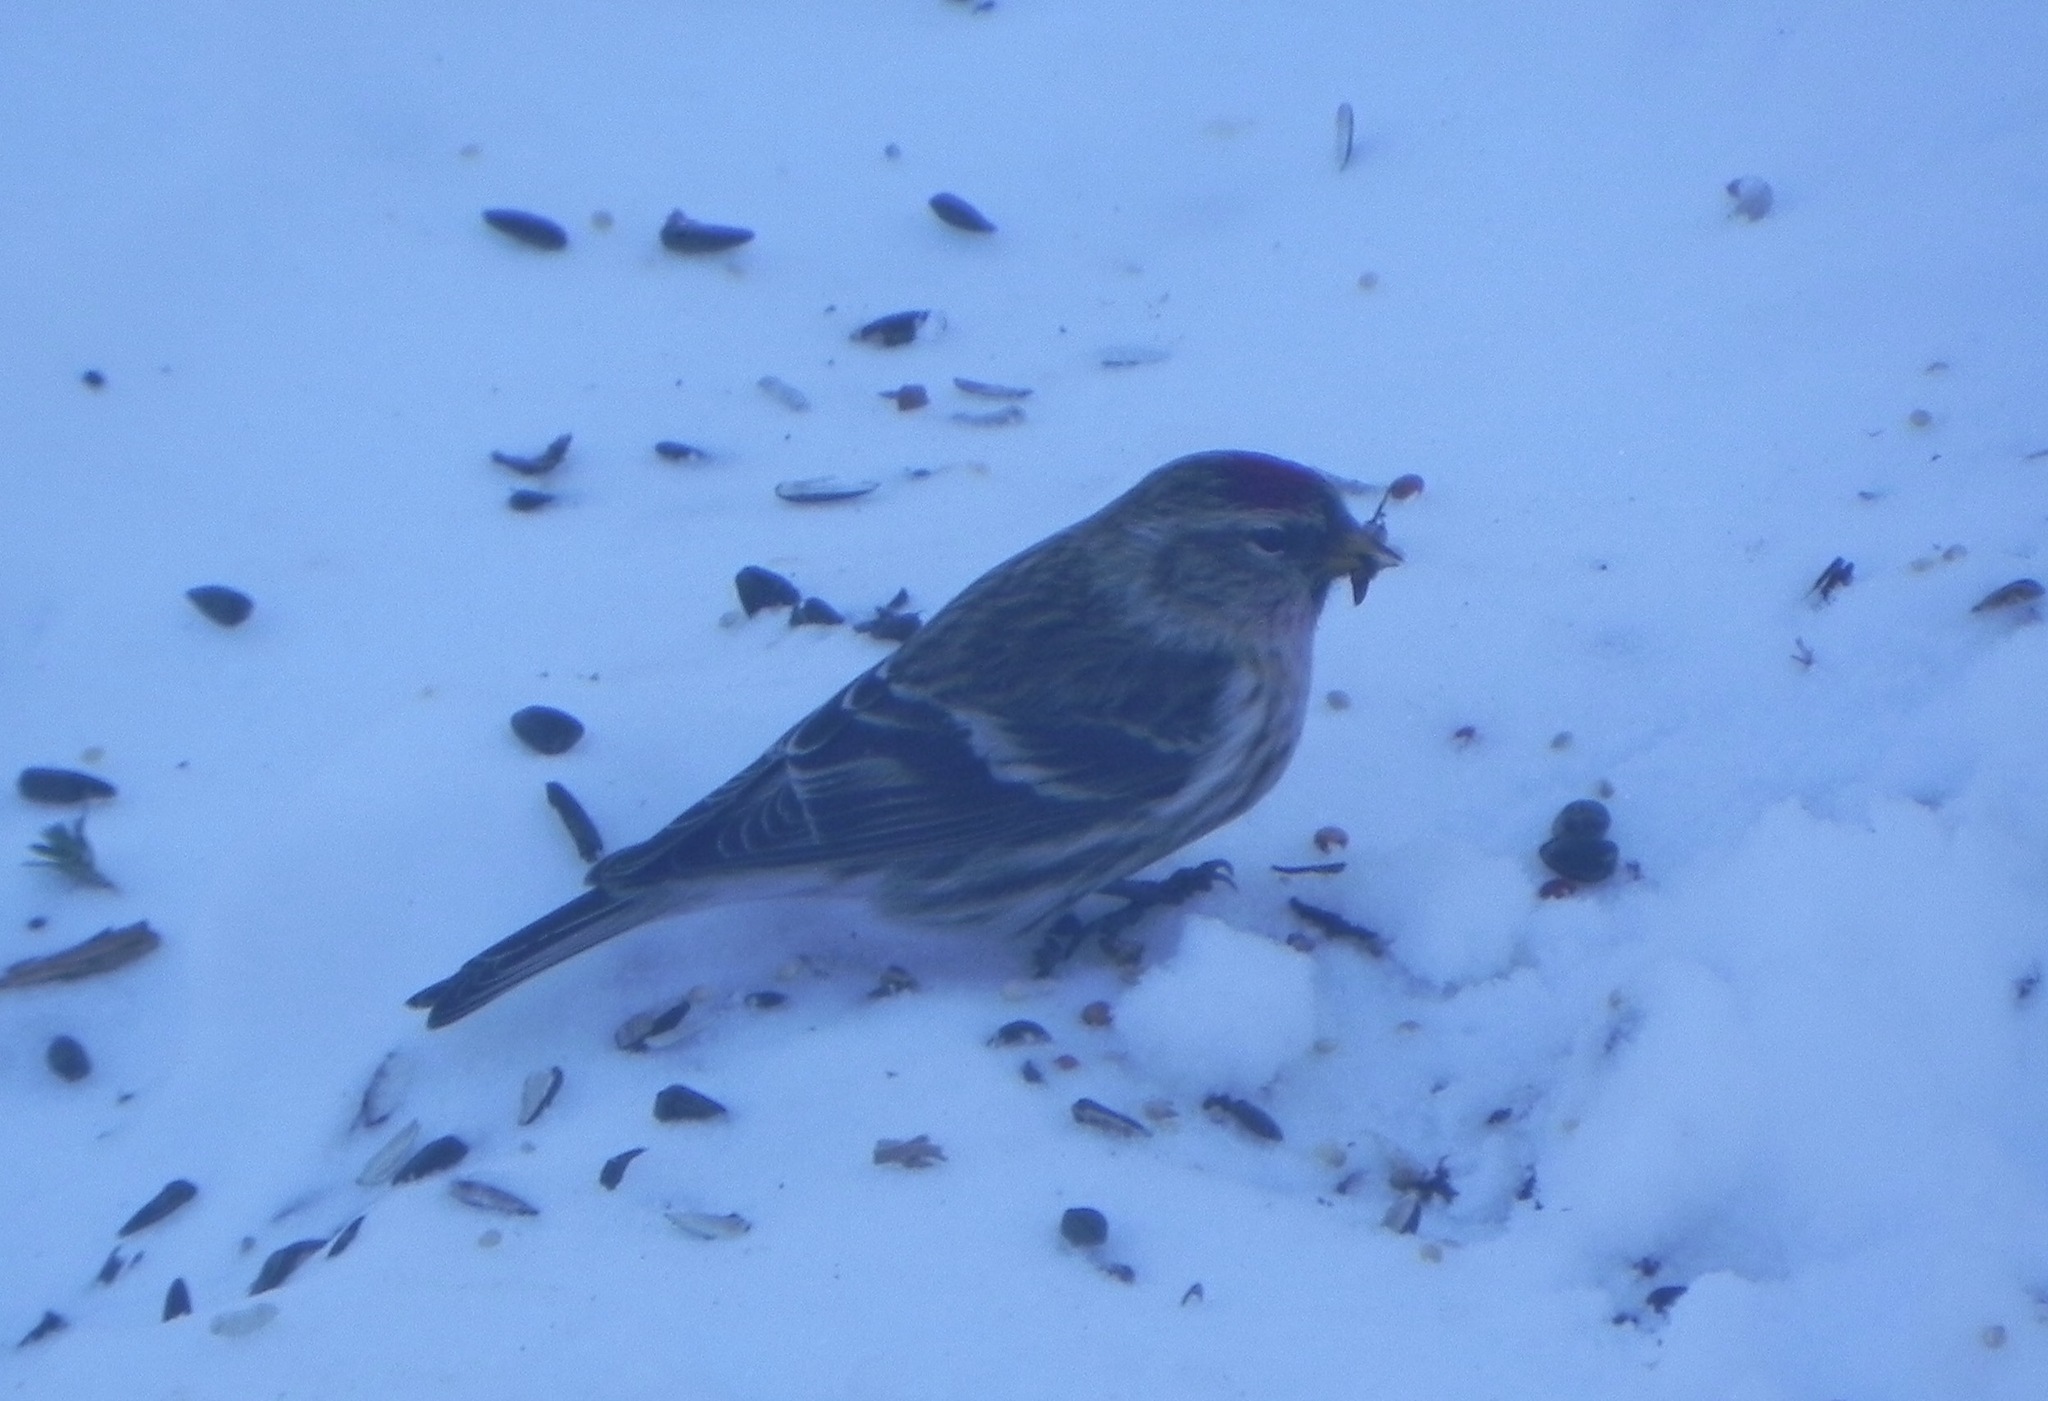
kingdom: Animalia
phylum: Chordata
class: Aves
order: Passeriformes
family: Fringillidae
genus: Acanthis
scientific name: Acanthis flammea
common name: Common redpoll
